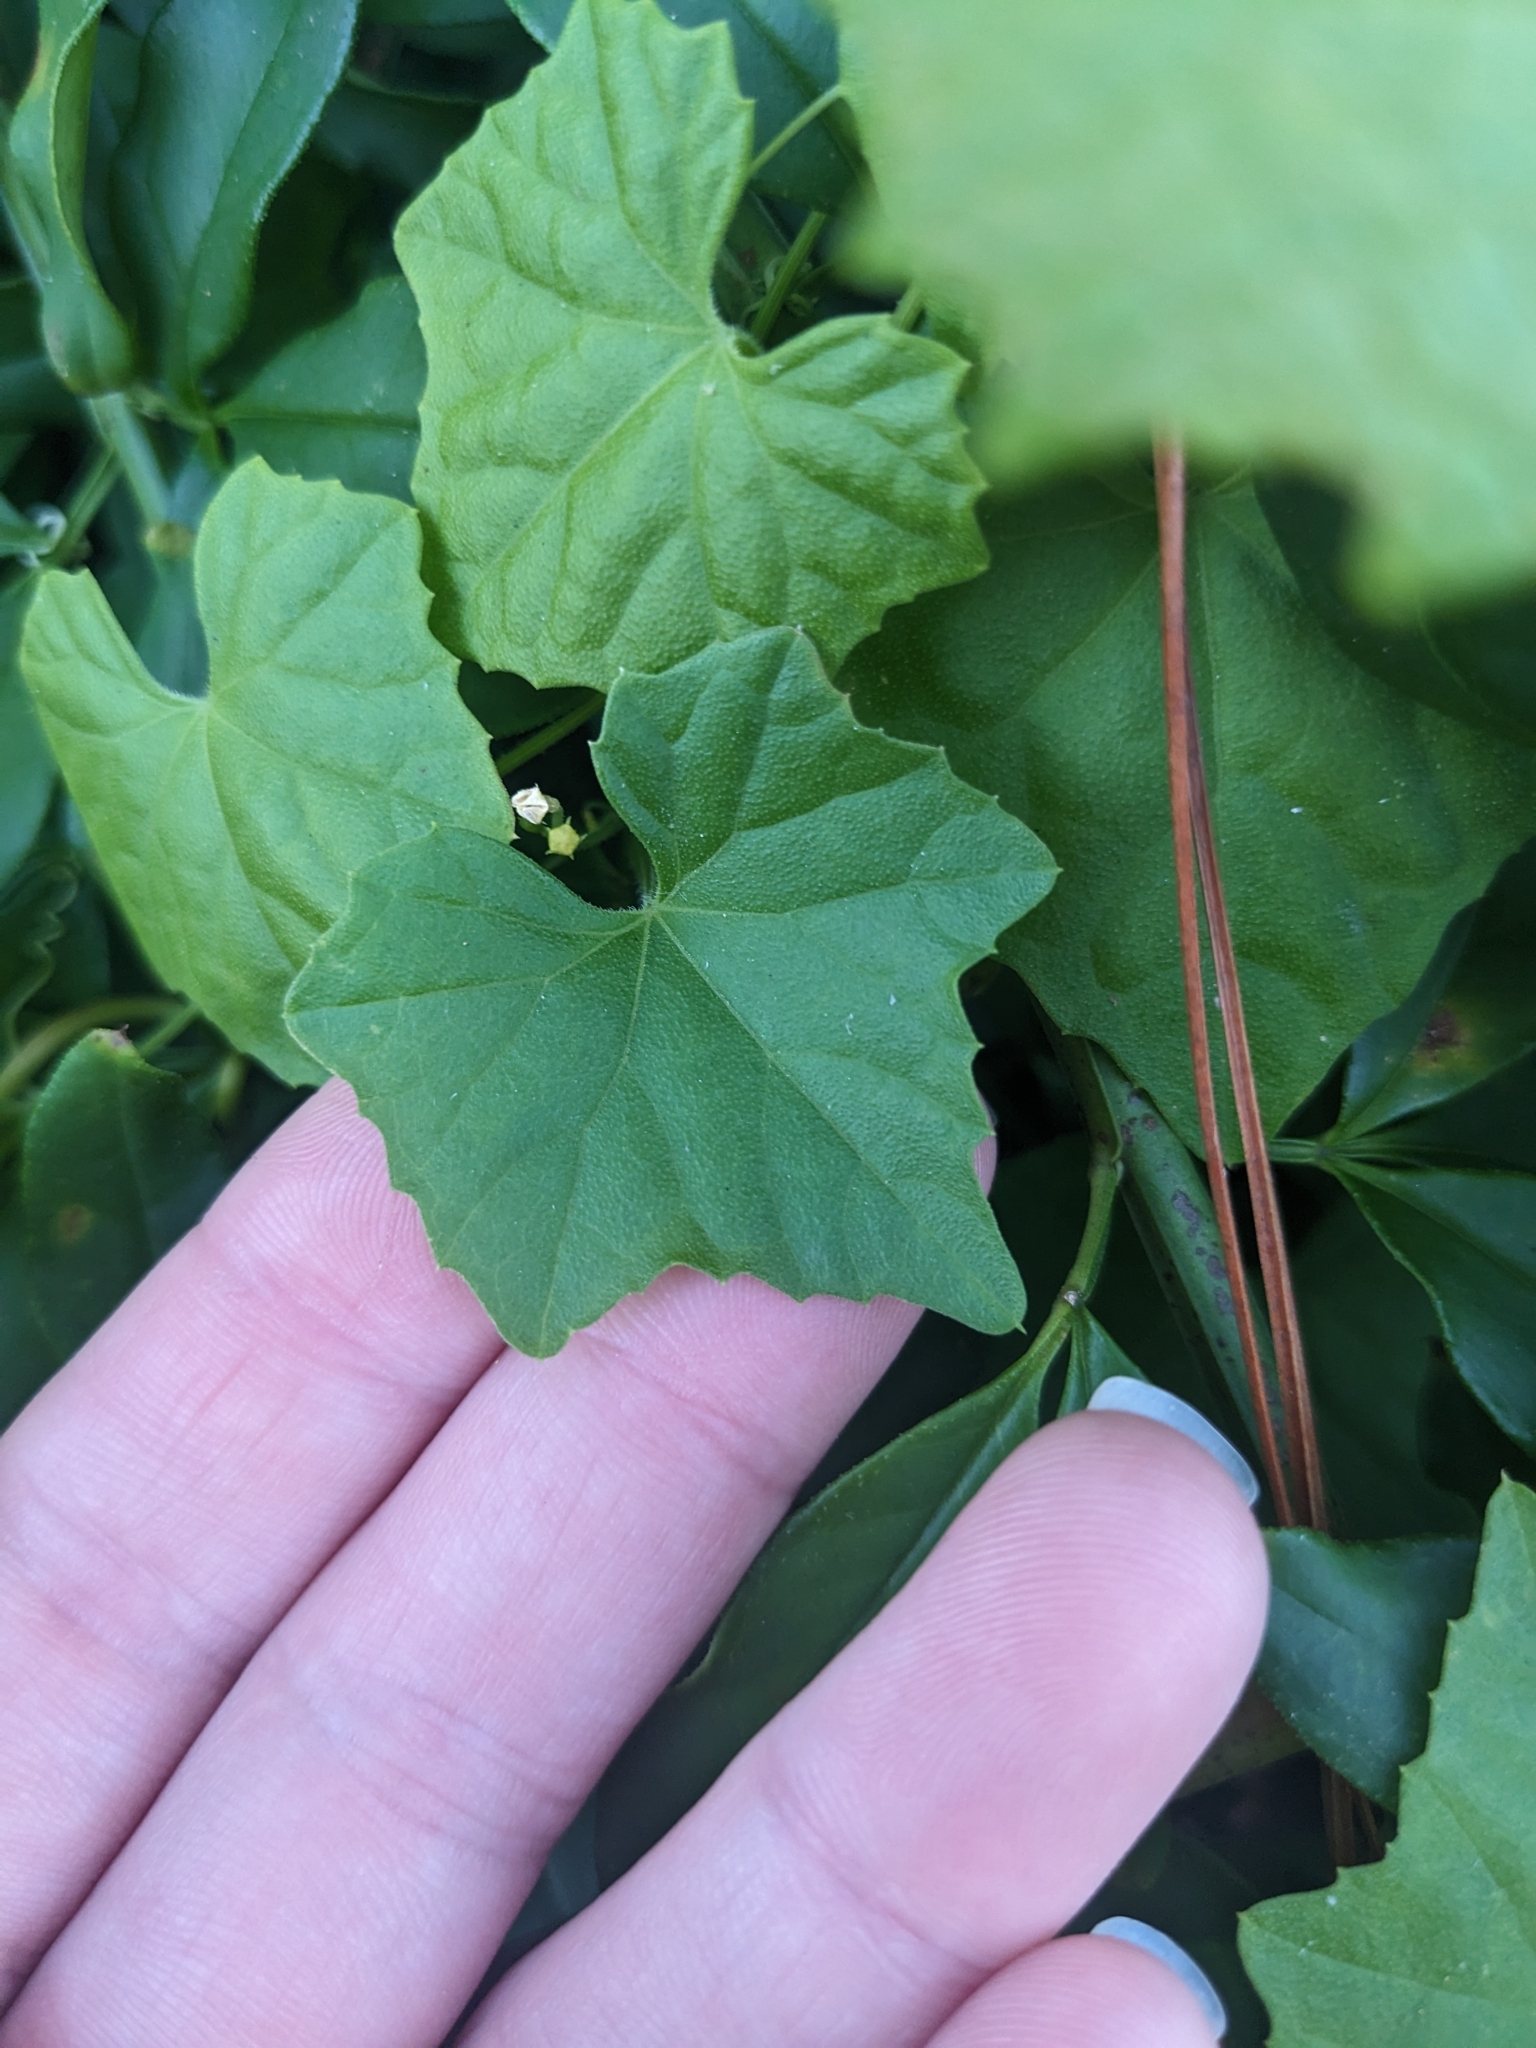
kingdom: Plantae
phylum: Tracheophyta
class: Magnoliopsida
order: Cucurbitales
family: Cucurbitaceae
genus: Melothria
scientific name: Melothria pendula
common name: Creeping-cucumber
